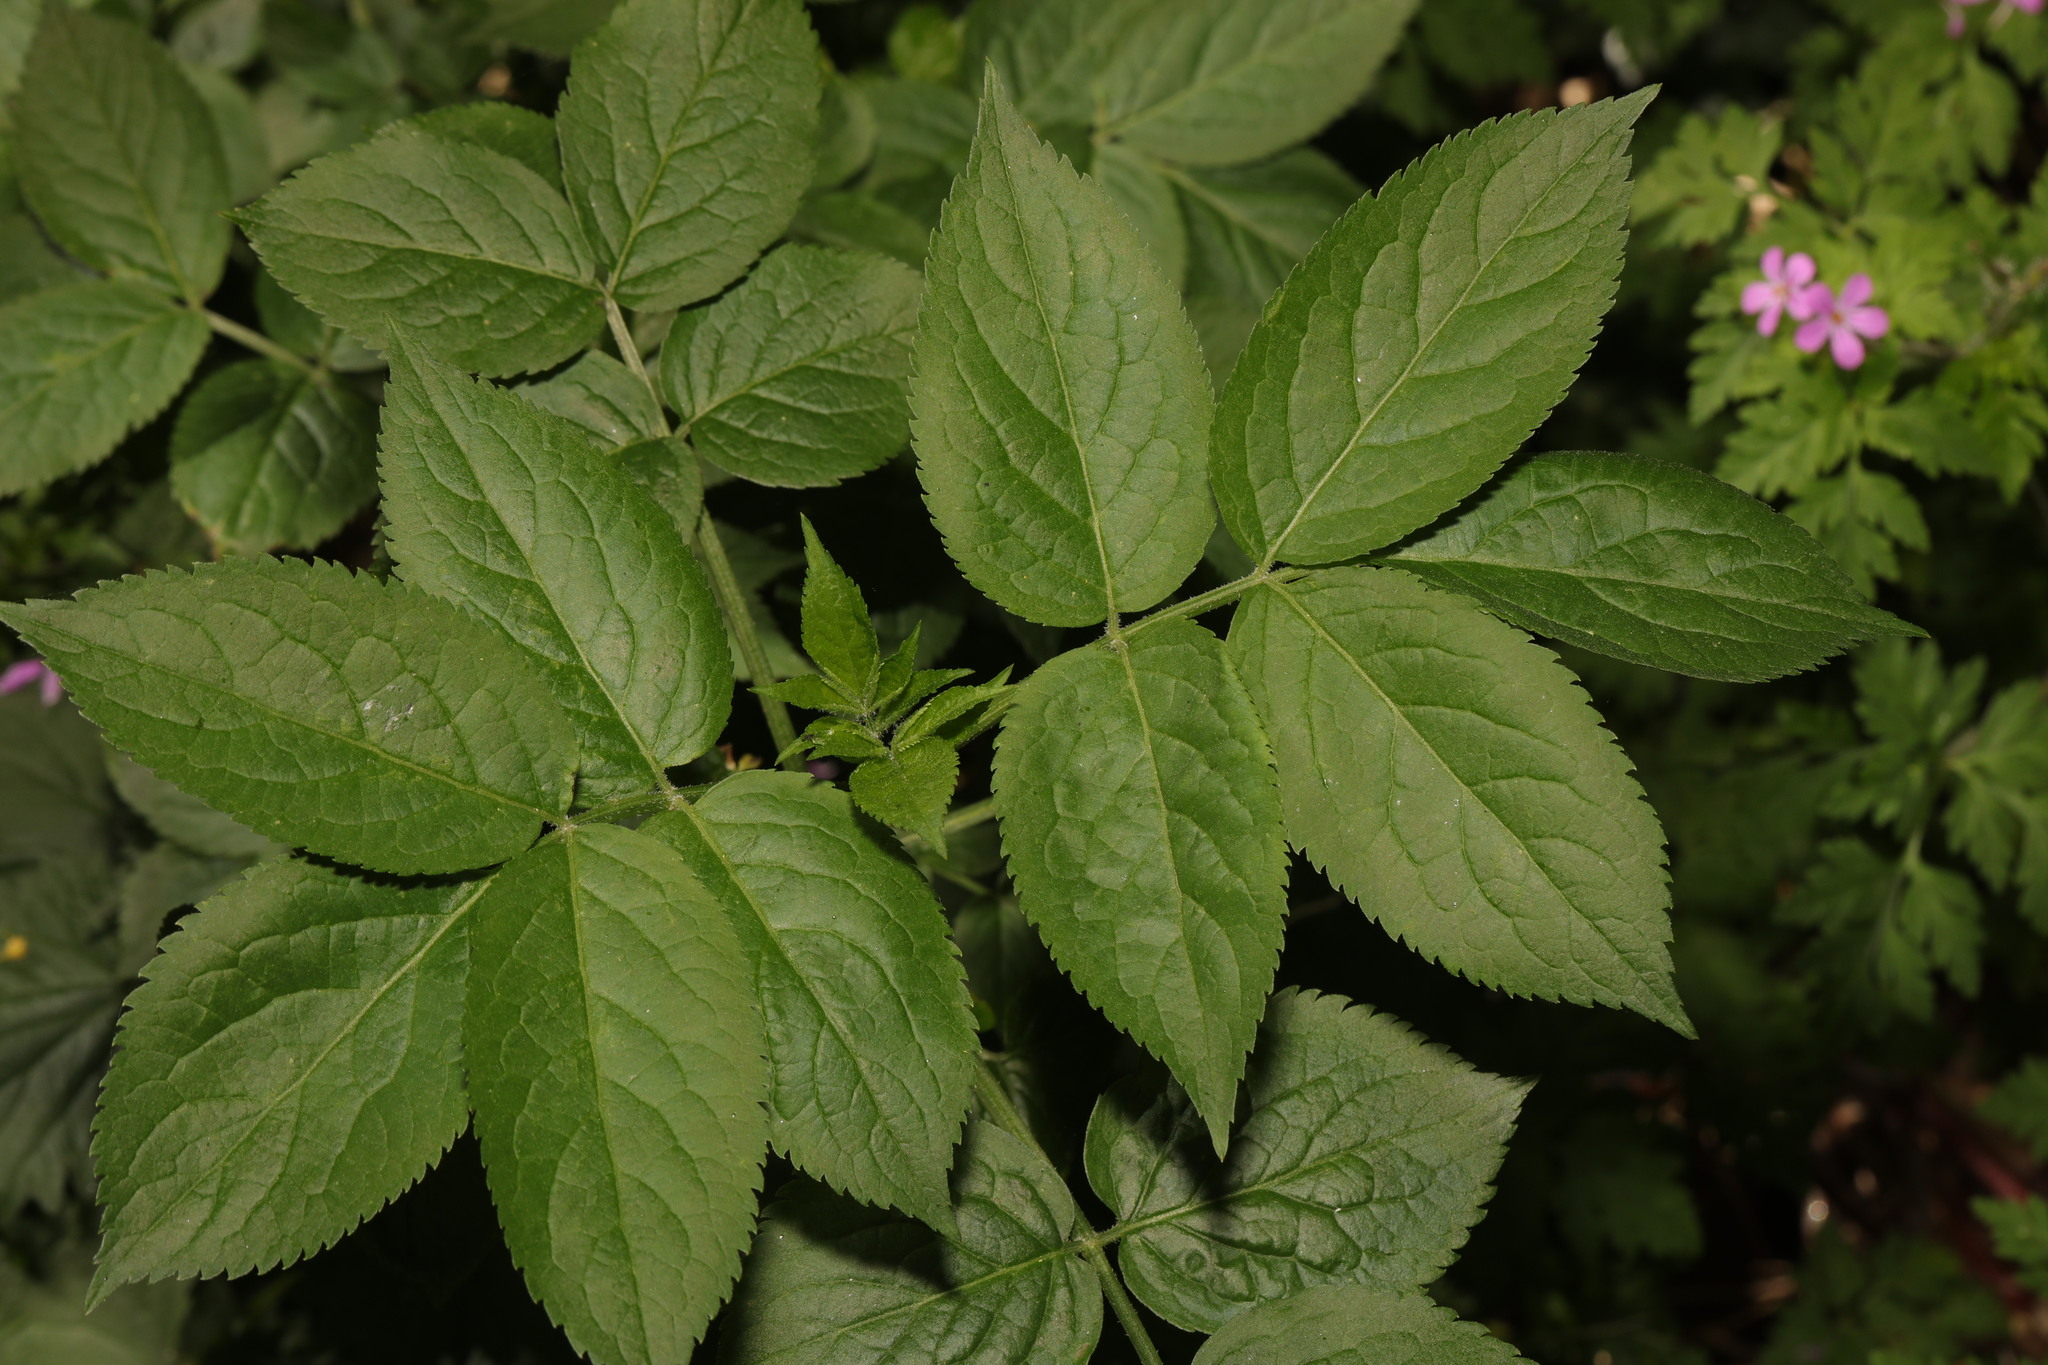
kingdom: Plantae
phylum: Tracheophyta
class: Magnoliopsida
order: Dipsacales
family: Viburnaceae
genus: Sambucus
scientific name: Sambucus nigra
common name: Elder
